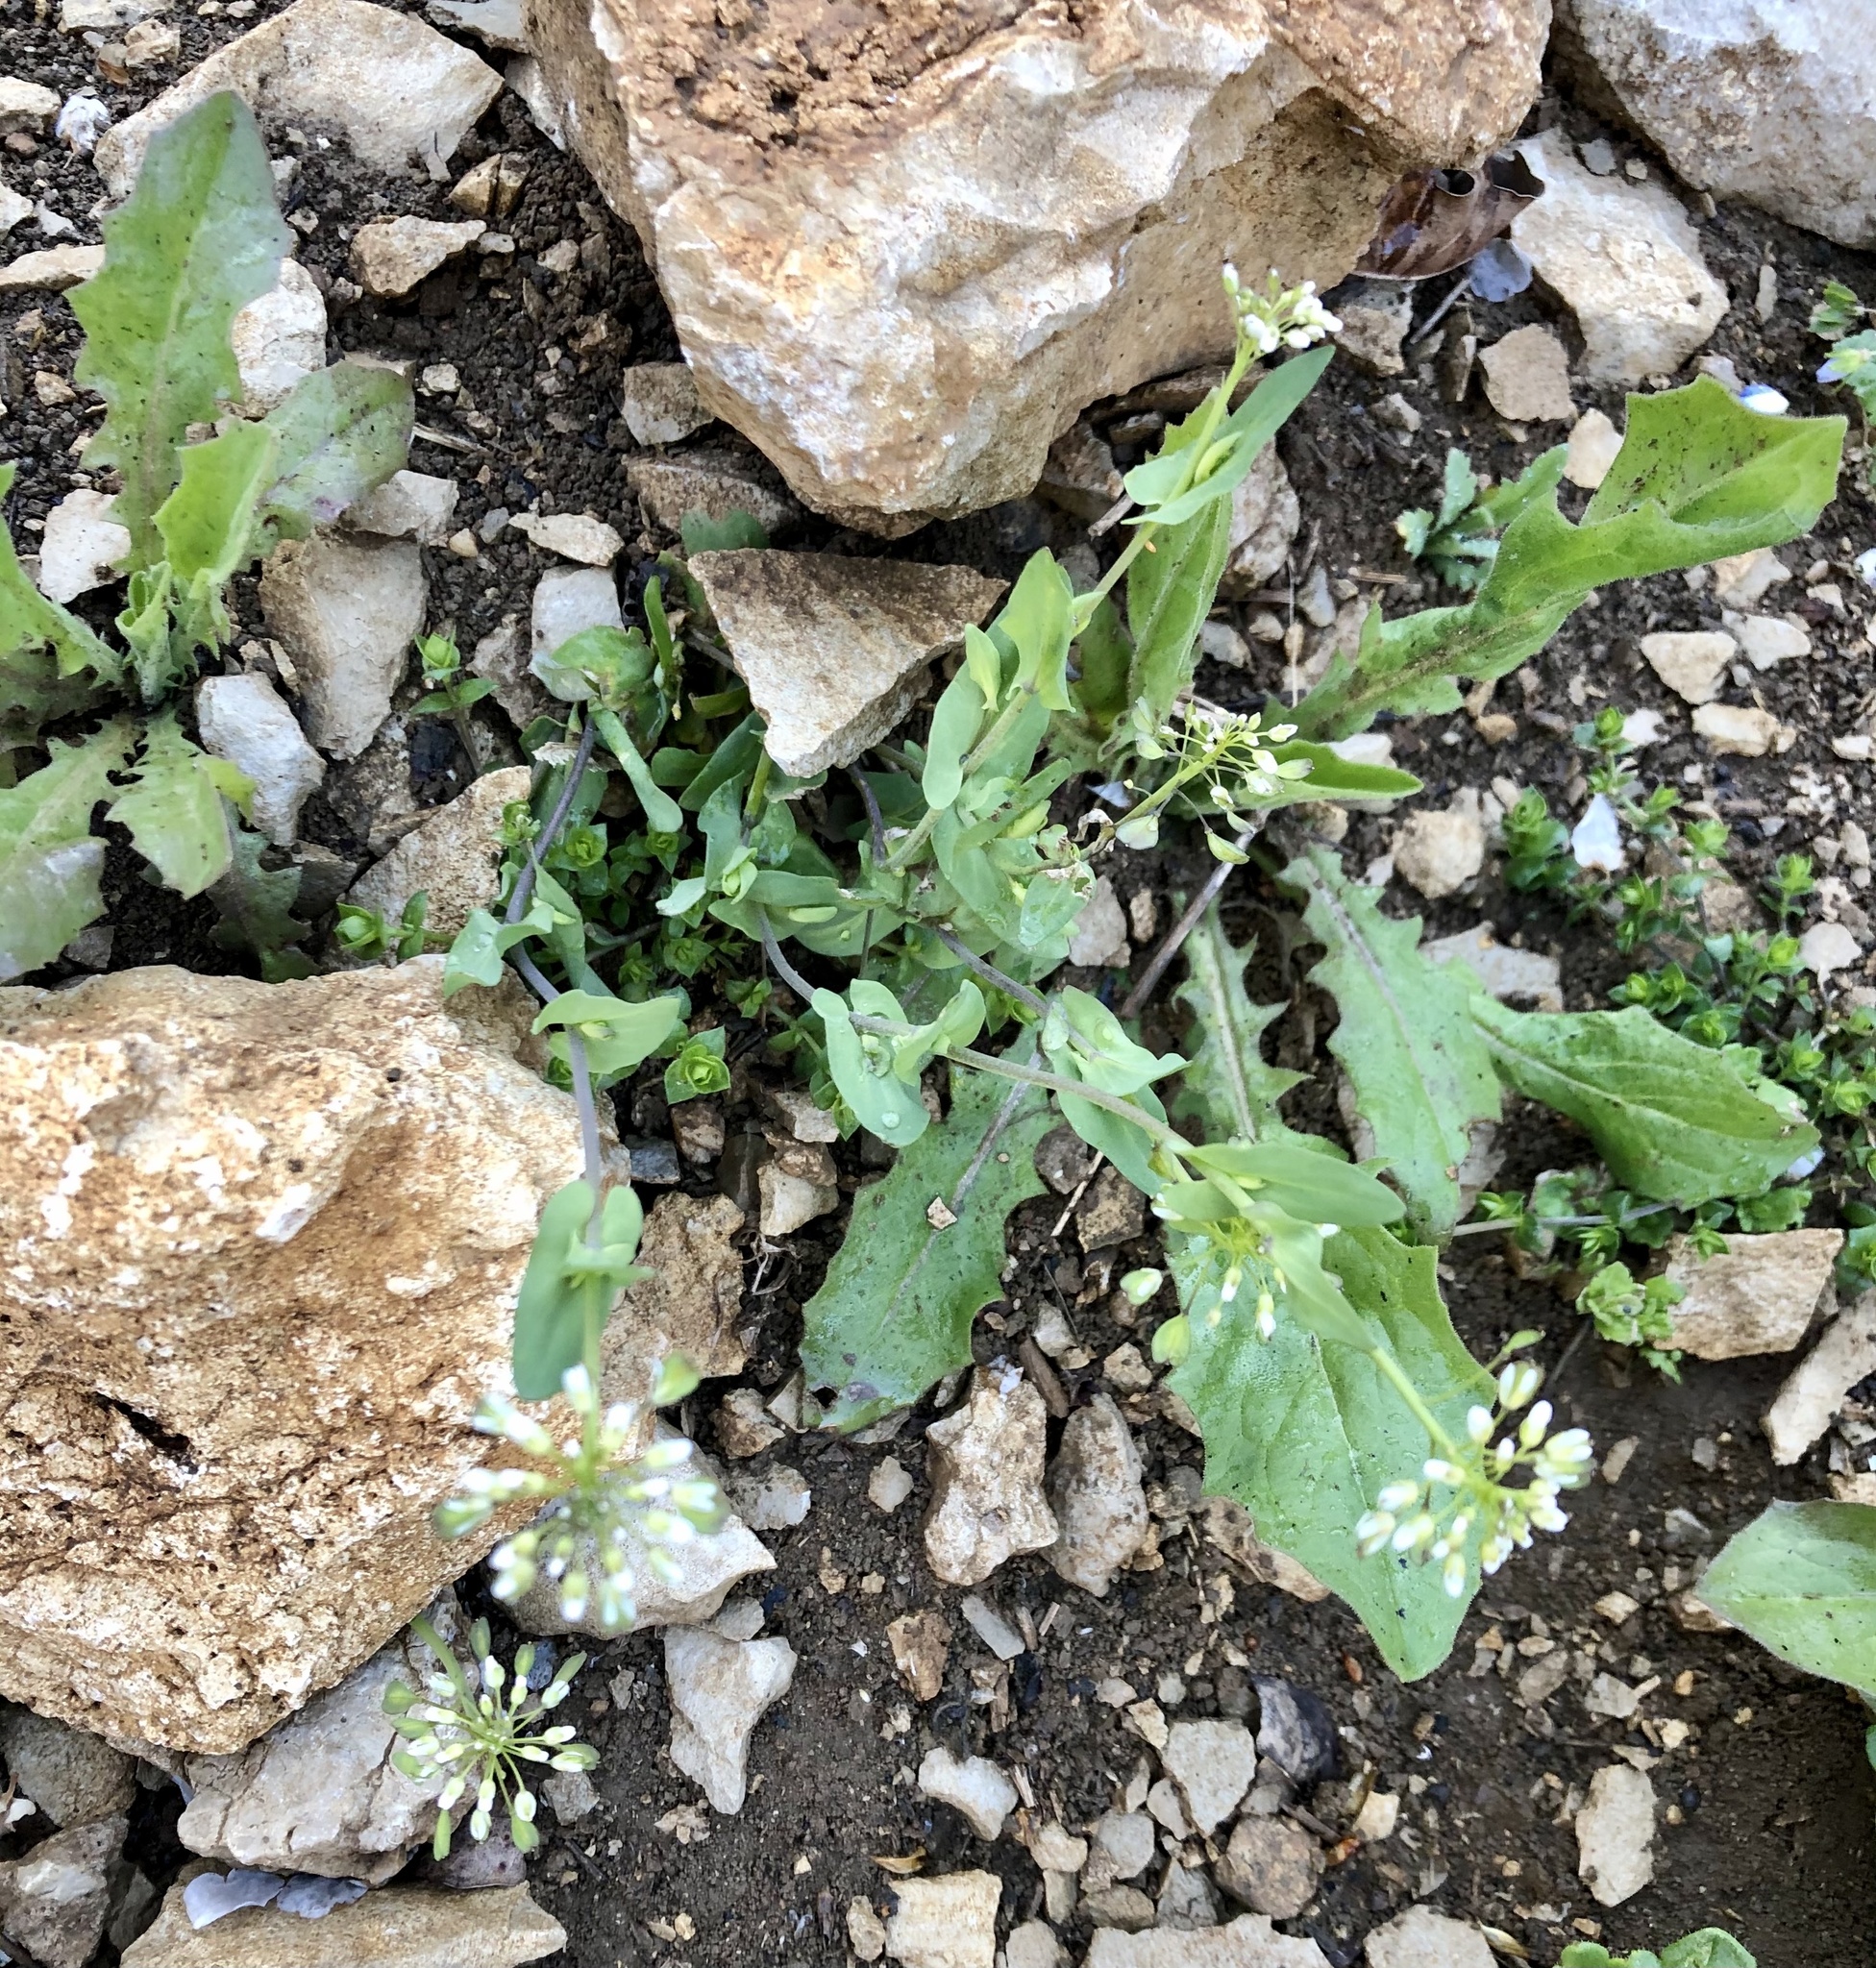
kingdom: Plantae
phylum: Tracheophyta
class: Magnoliopsida
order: Brassicales
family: Brassicaceae
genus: Noccaea
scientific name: Noccaea perfoliata
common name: Perfoliate pennycress
